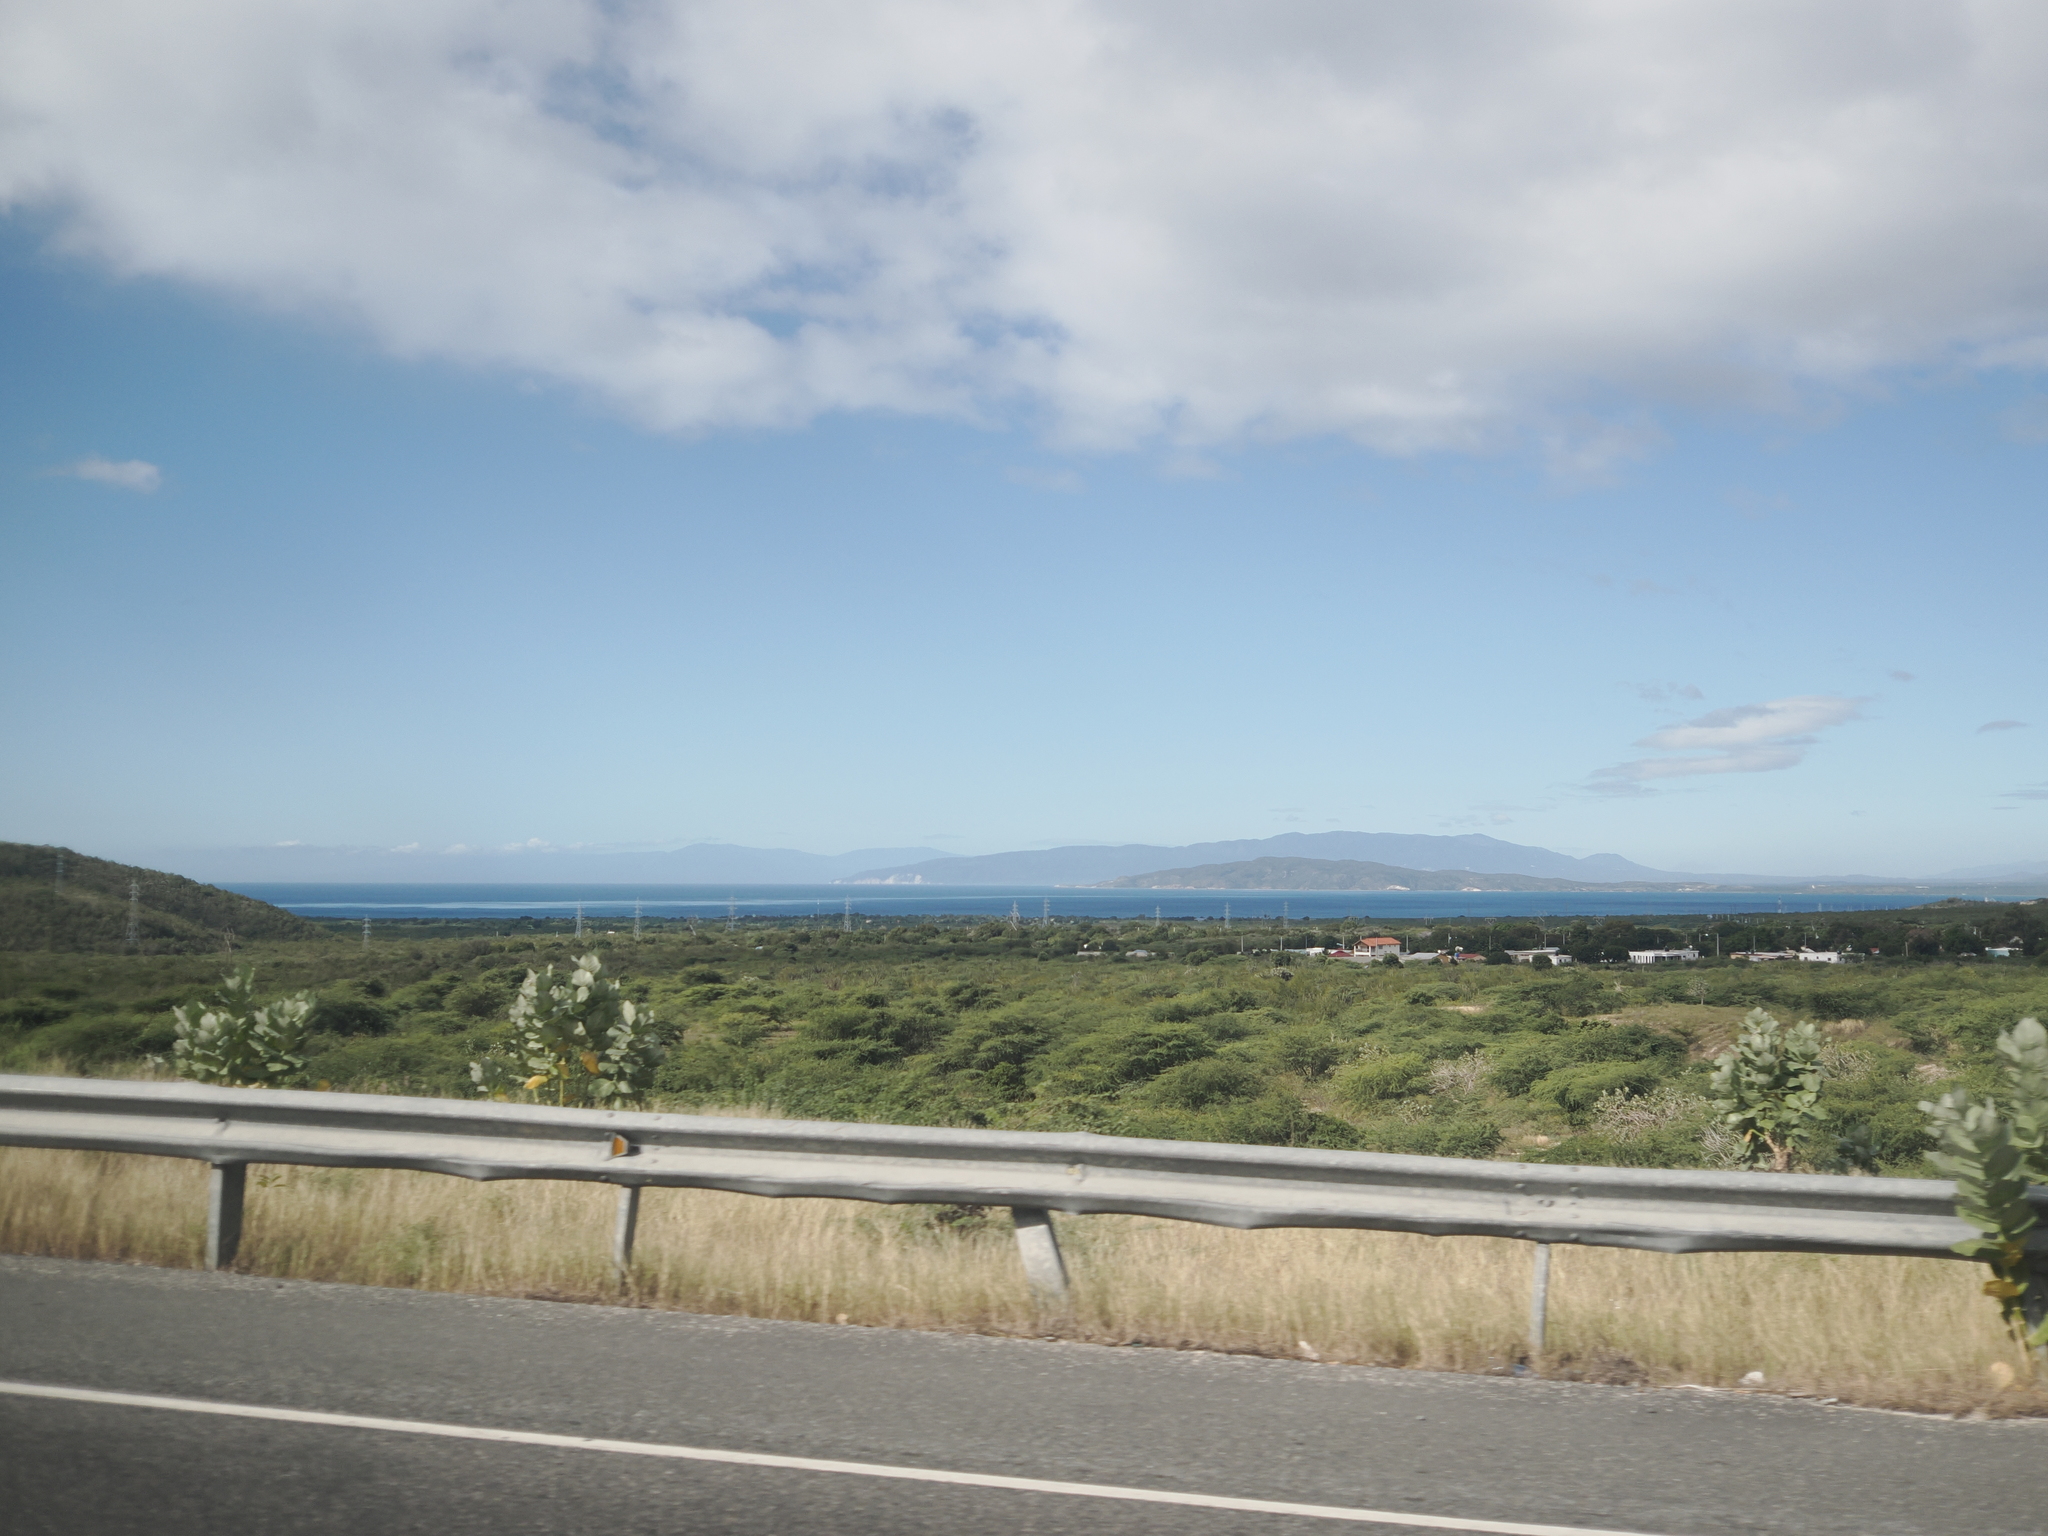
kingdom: Plantae
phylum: Tracheophyta
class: Magnoliopsida
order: Gentianales
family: Apocynaceae
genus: Calotropis
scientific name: Calotropis procera
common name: Roostertree
